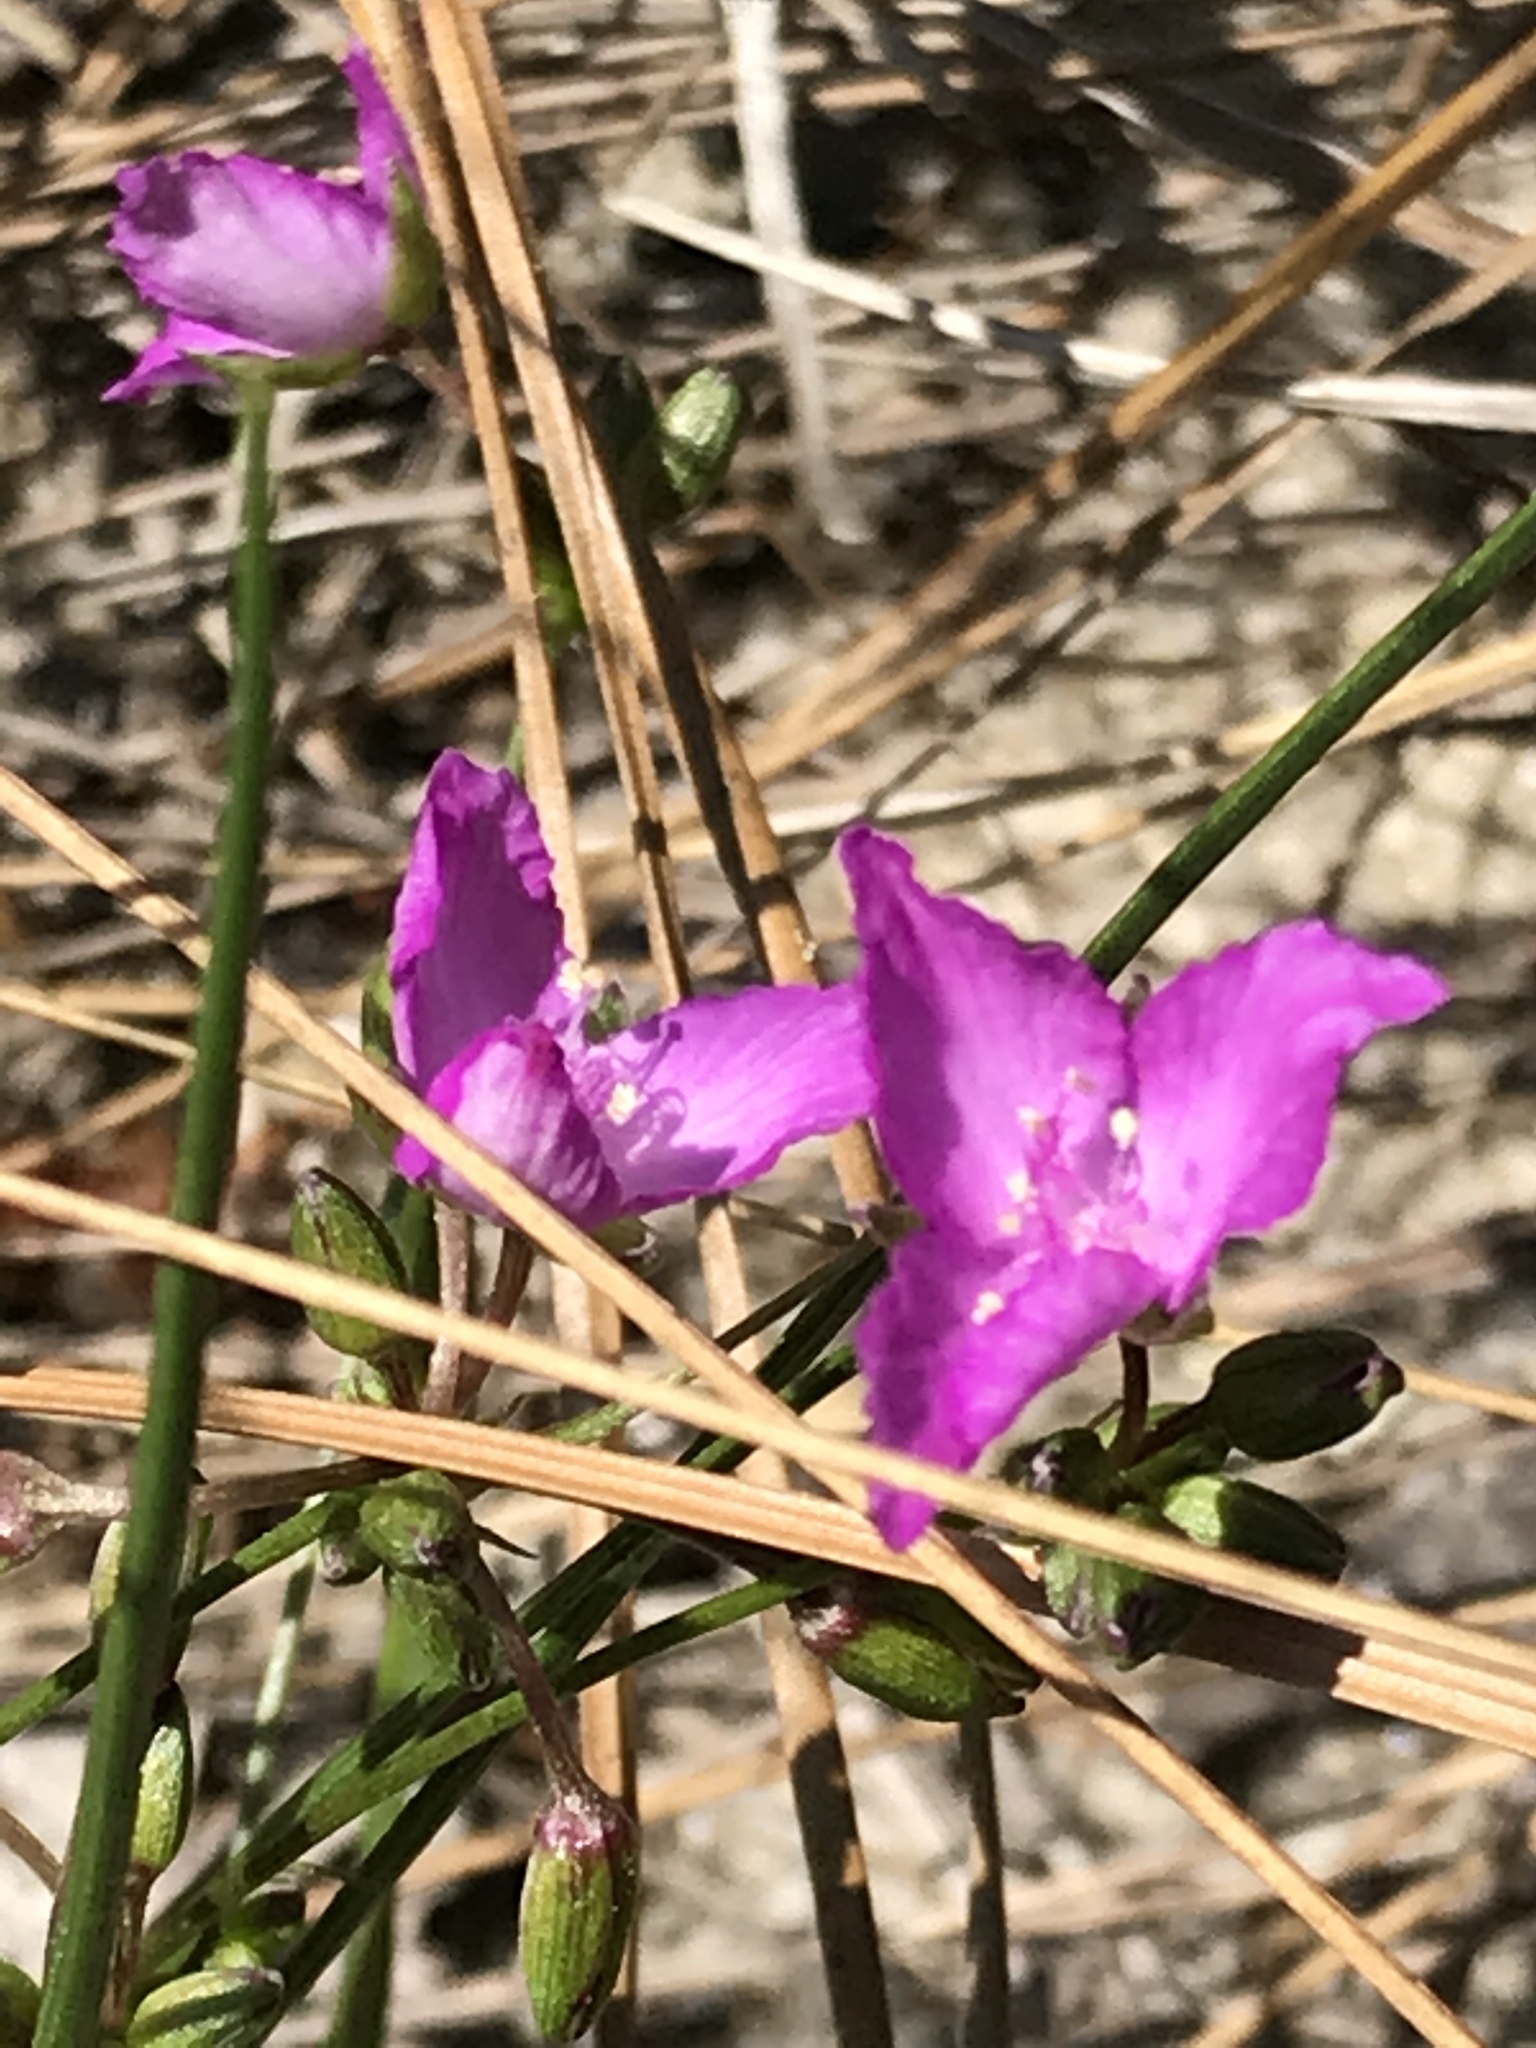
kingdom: Plantae
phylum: Tracheophyta
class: Liliopsida
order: Commelinales
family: Commelinaceae
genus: Callisia
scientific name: Callisia graminea
